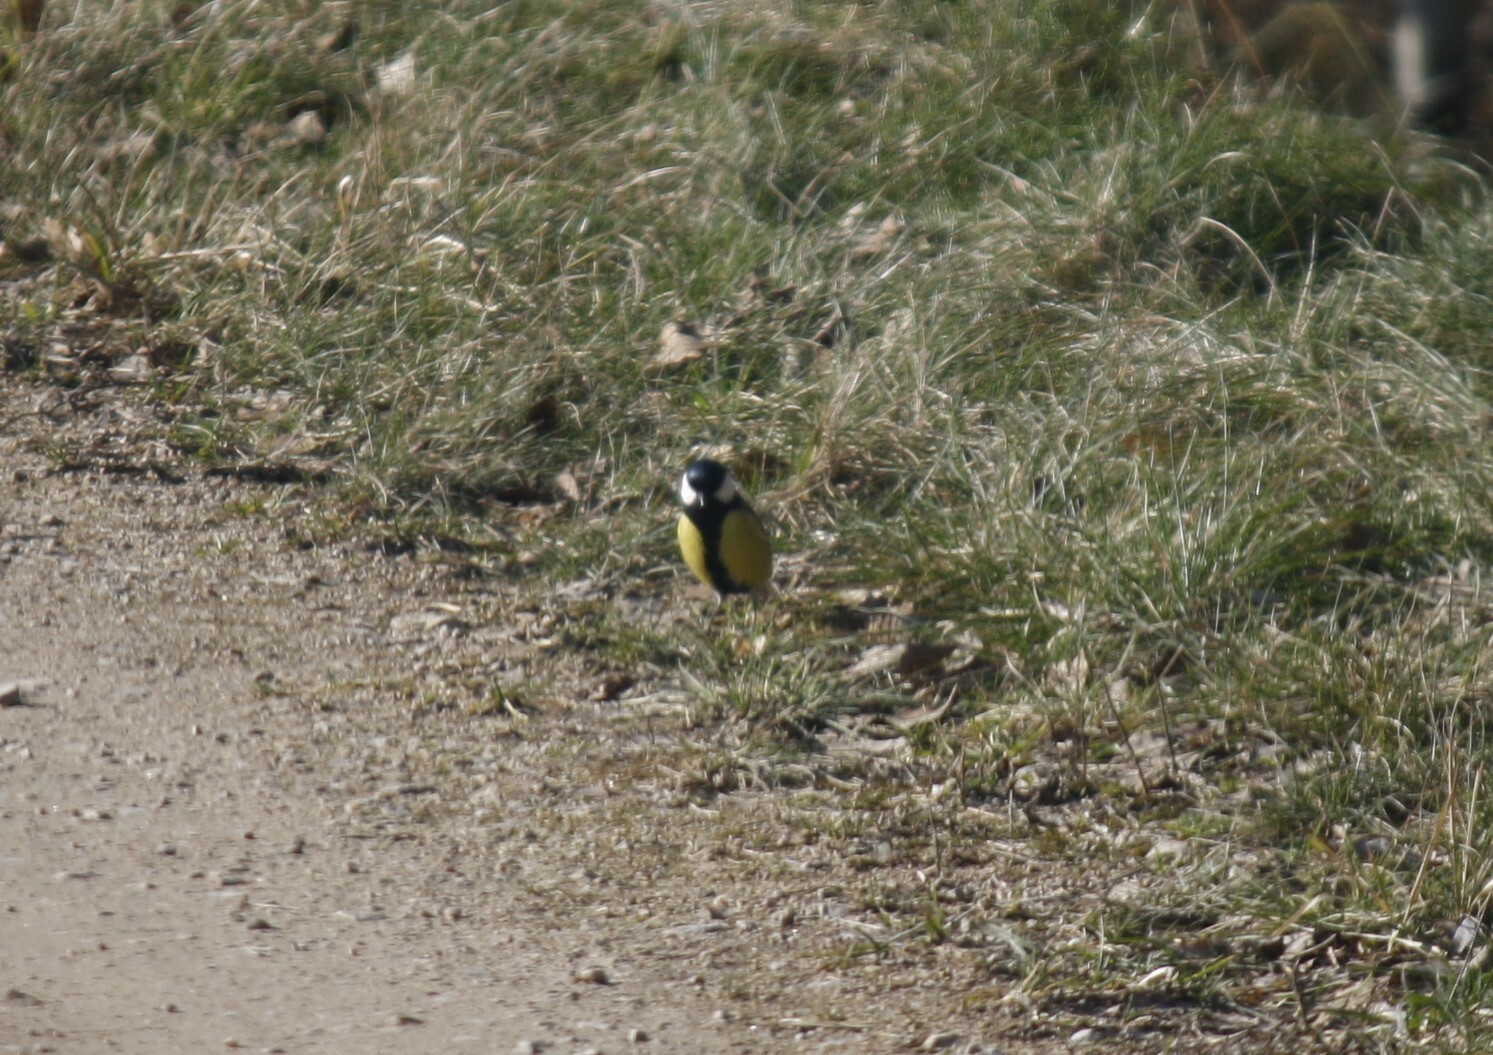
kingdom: Animalia
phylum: Chordata
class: Aves
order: Passeriformes
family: Paridae
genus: Parus
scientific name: Parus major
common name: Great tit
